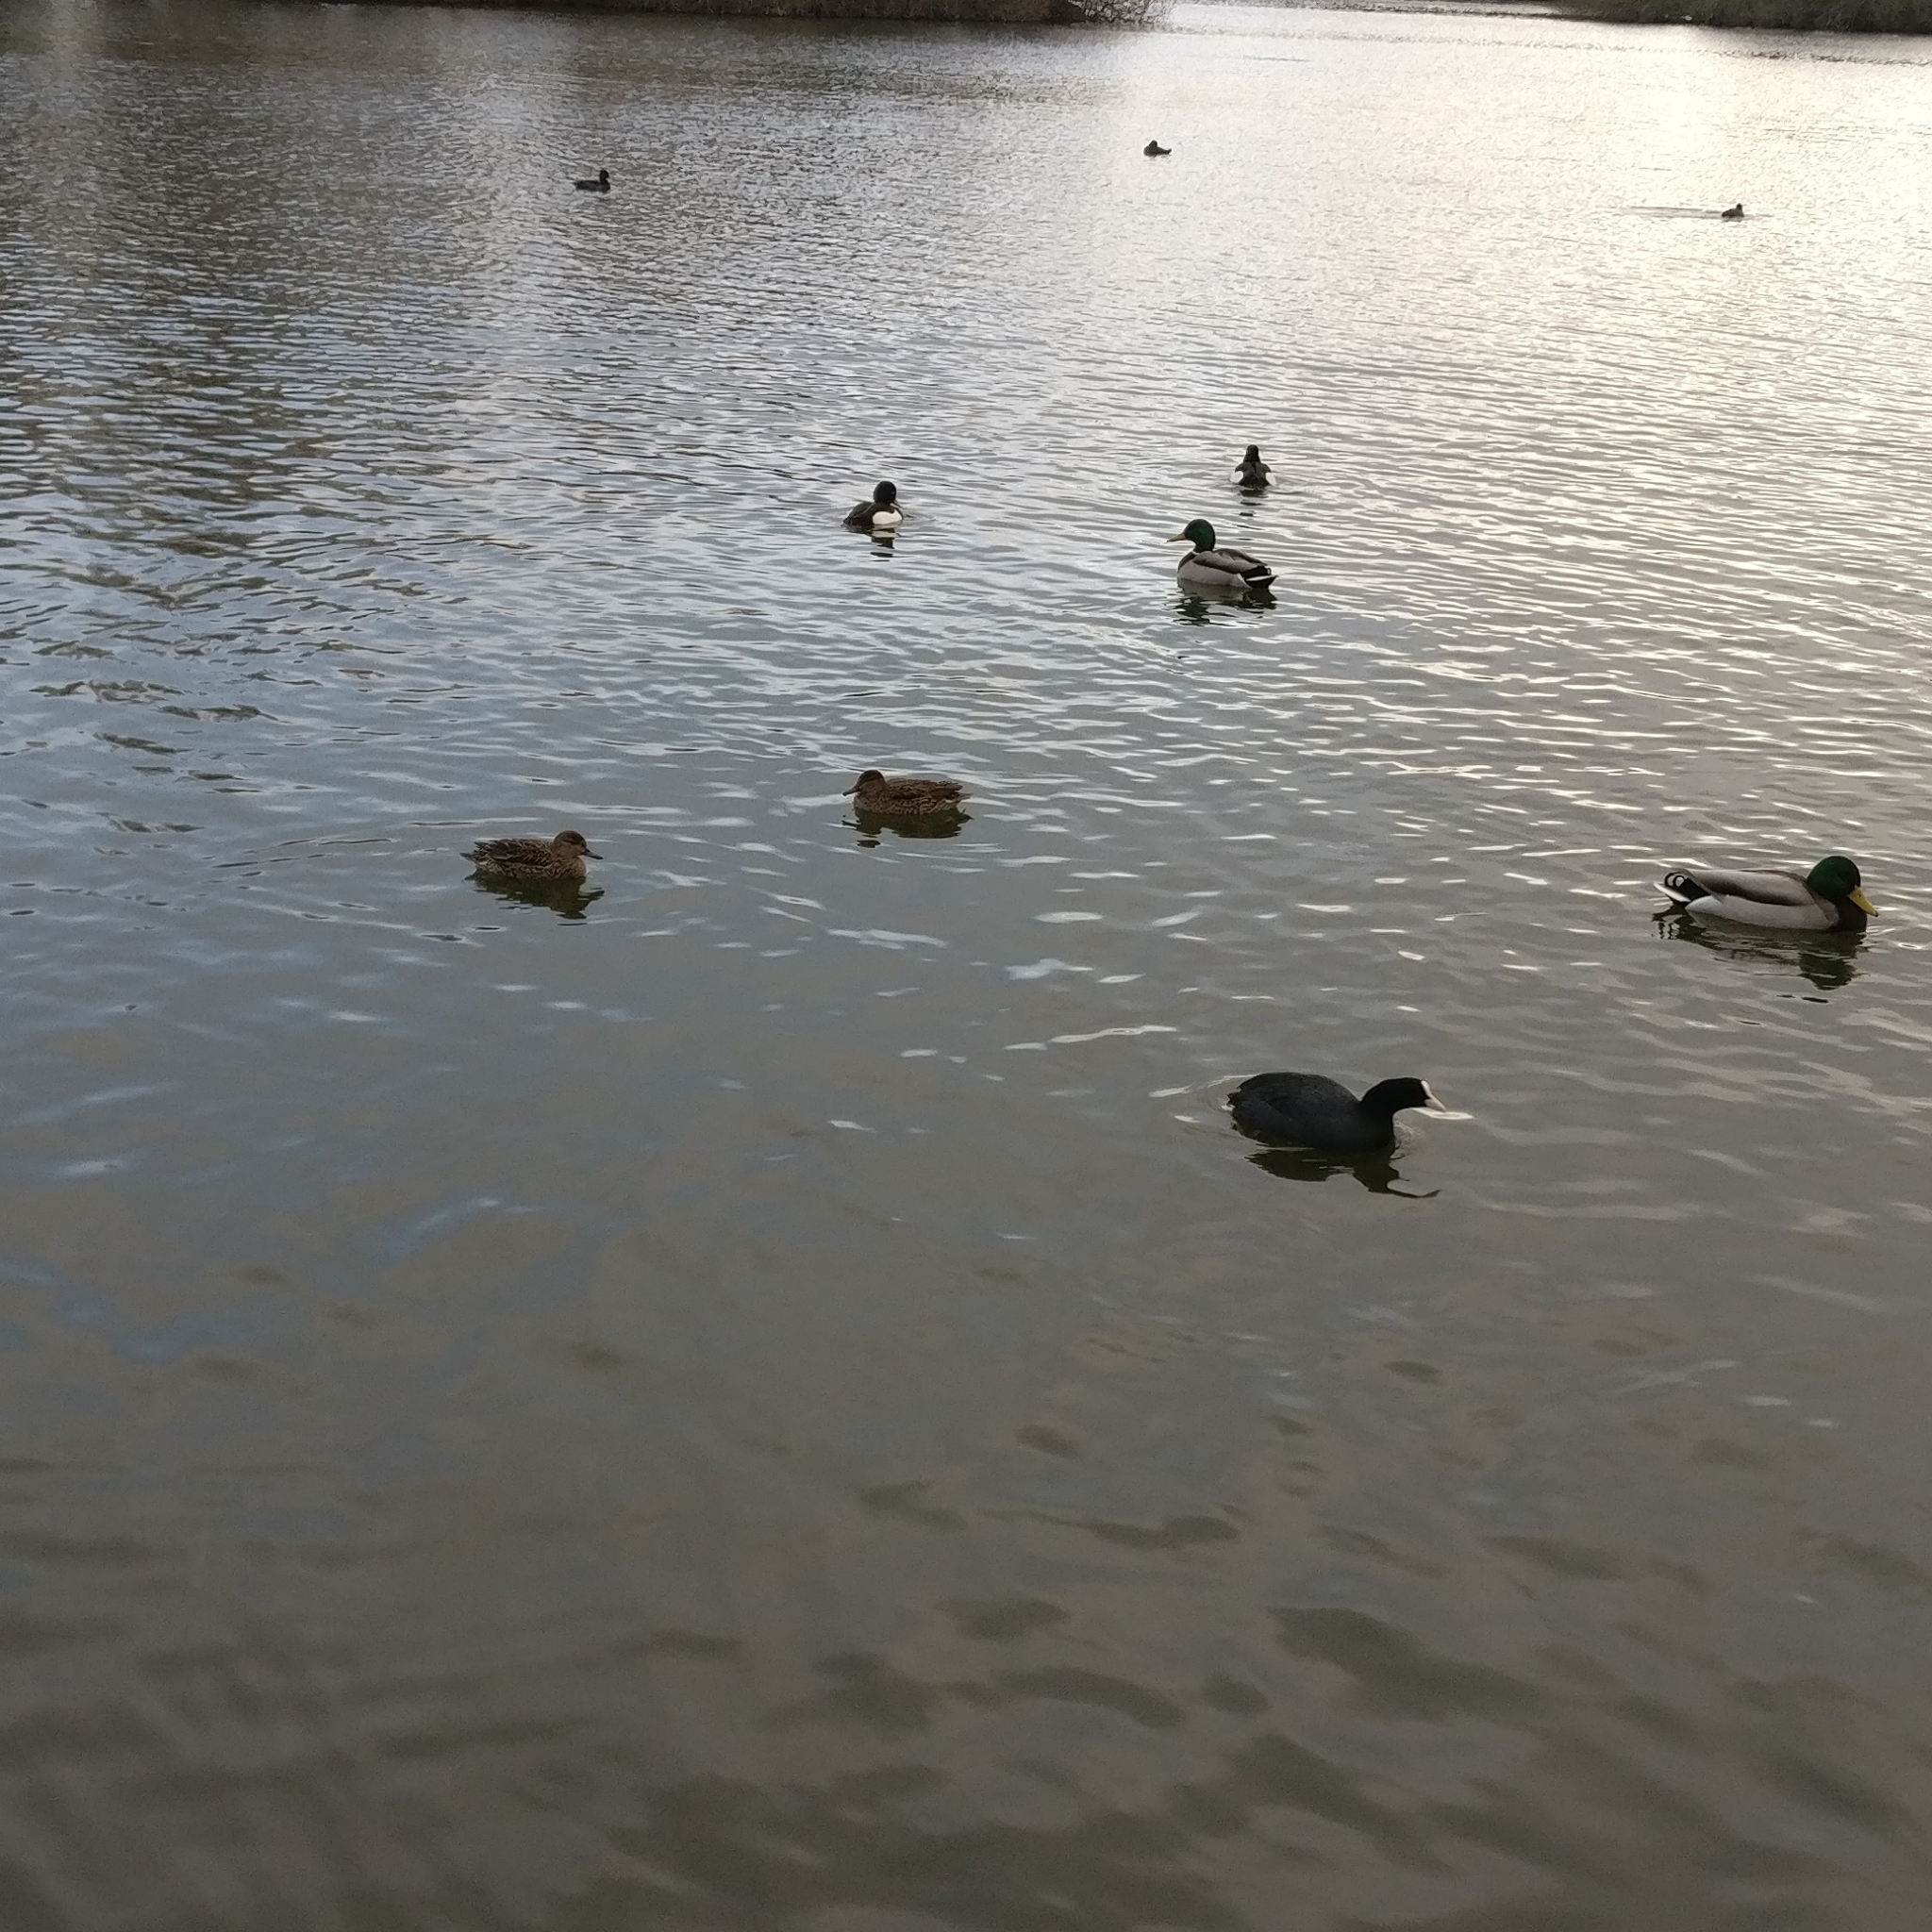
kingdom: Animalia
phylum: Chordata
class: Aves
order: Anseriformes
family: Anatidae
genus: Anas
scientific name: Anas crecca
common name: Eurasian teal
